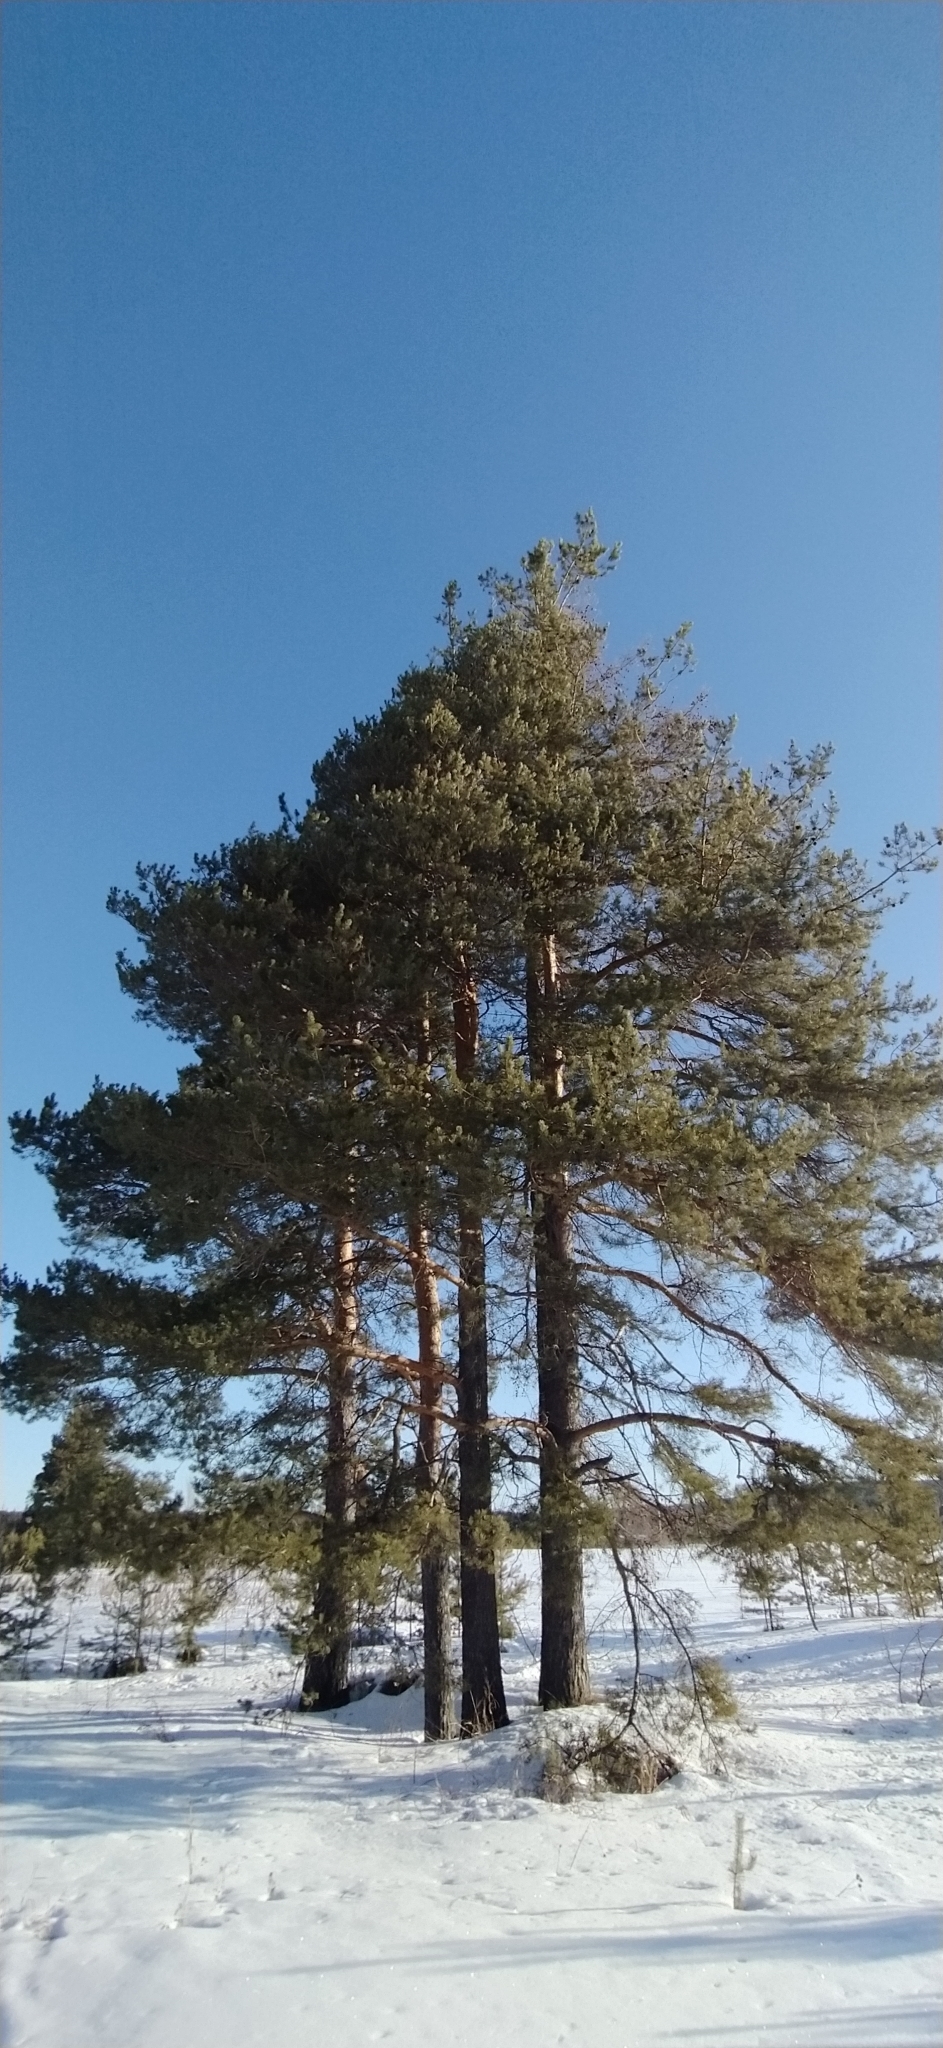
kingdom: Plantae
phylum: Tracheophyta
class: Pinopsida
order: Pinales
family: Pinaceae
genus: Pinus
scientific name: Pinus sylvestris
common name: Scots pine
